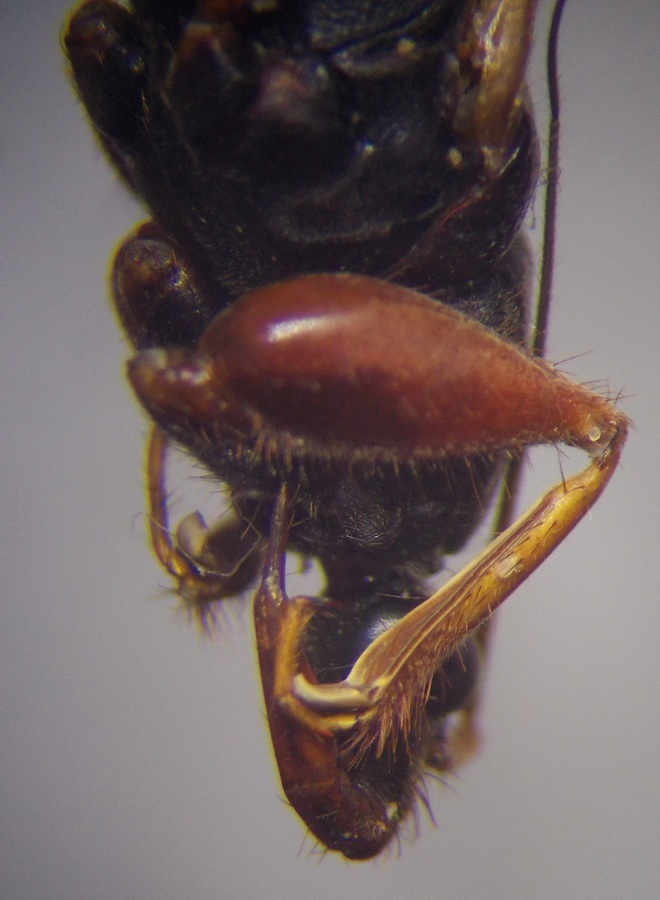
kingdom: Animalia
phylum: Arthropoda
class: Insecta
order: Hemiptera
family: Reduviidae
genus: Ectomocoris
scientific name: Ectomocoris ululans
